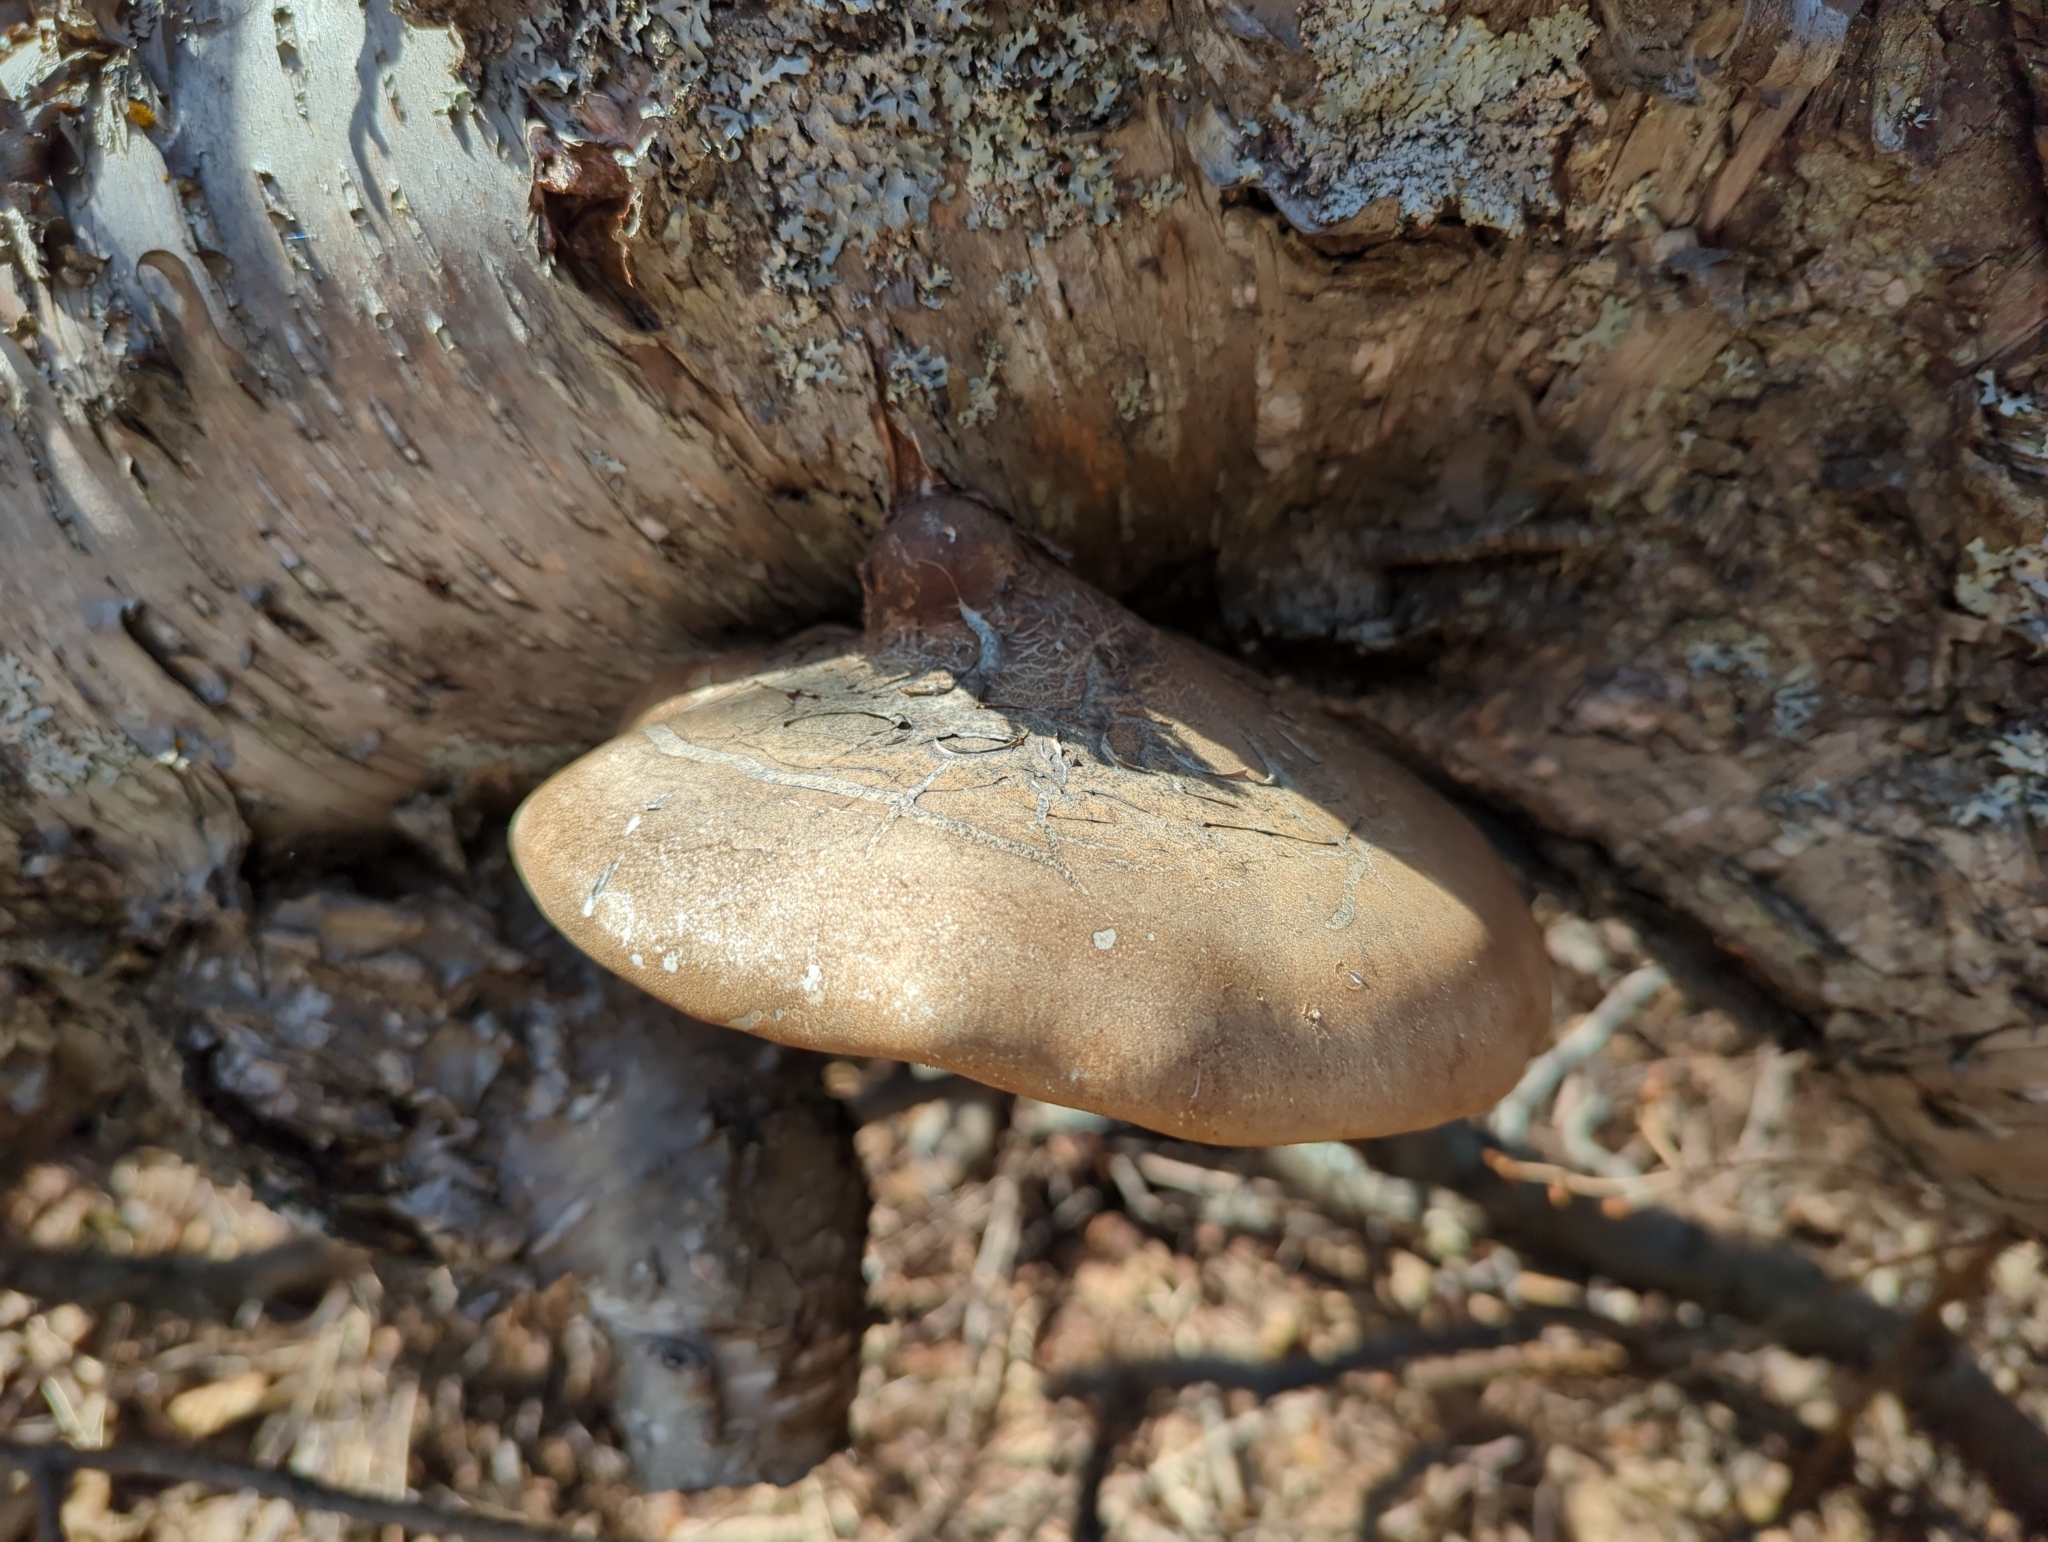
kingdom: Fungi
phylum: Basidiomycota
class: Agaricomycetes
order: Polyporales
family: Fomitopsidaceae
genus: Fomitopsis
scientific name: Fomitopsis betulina
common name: Birch polypore
